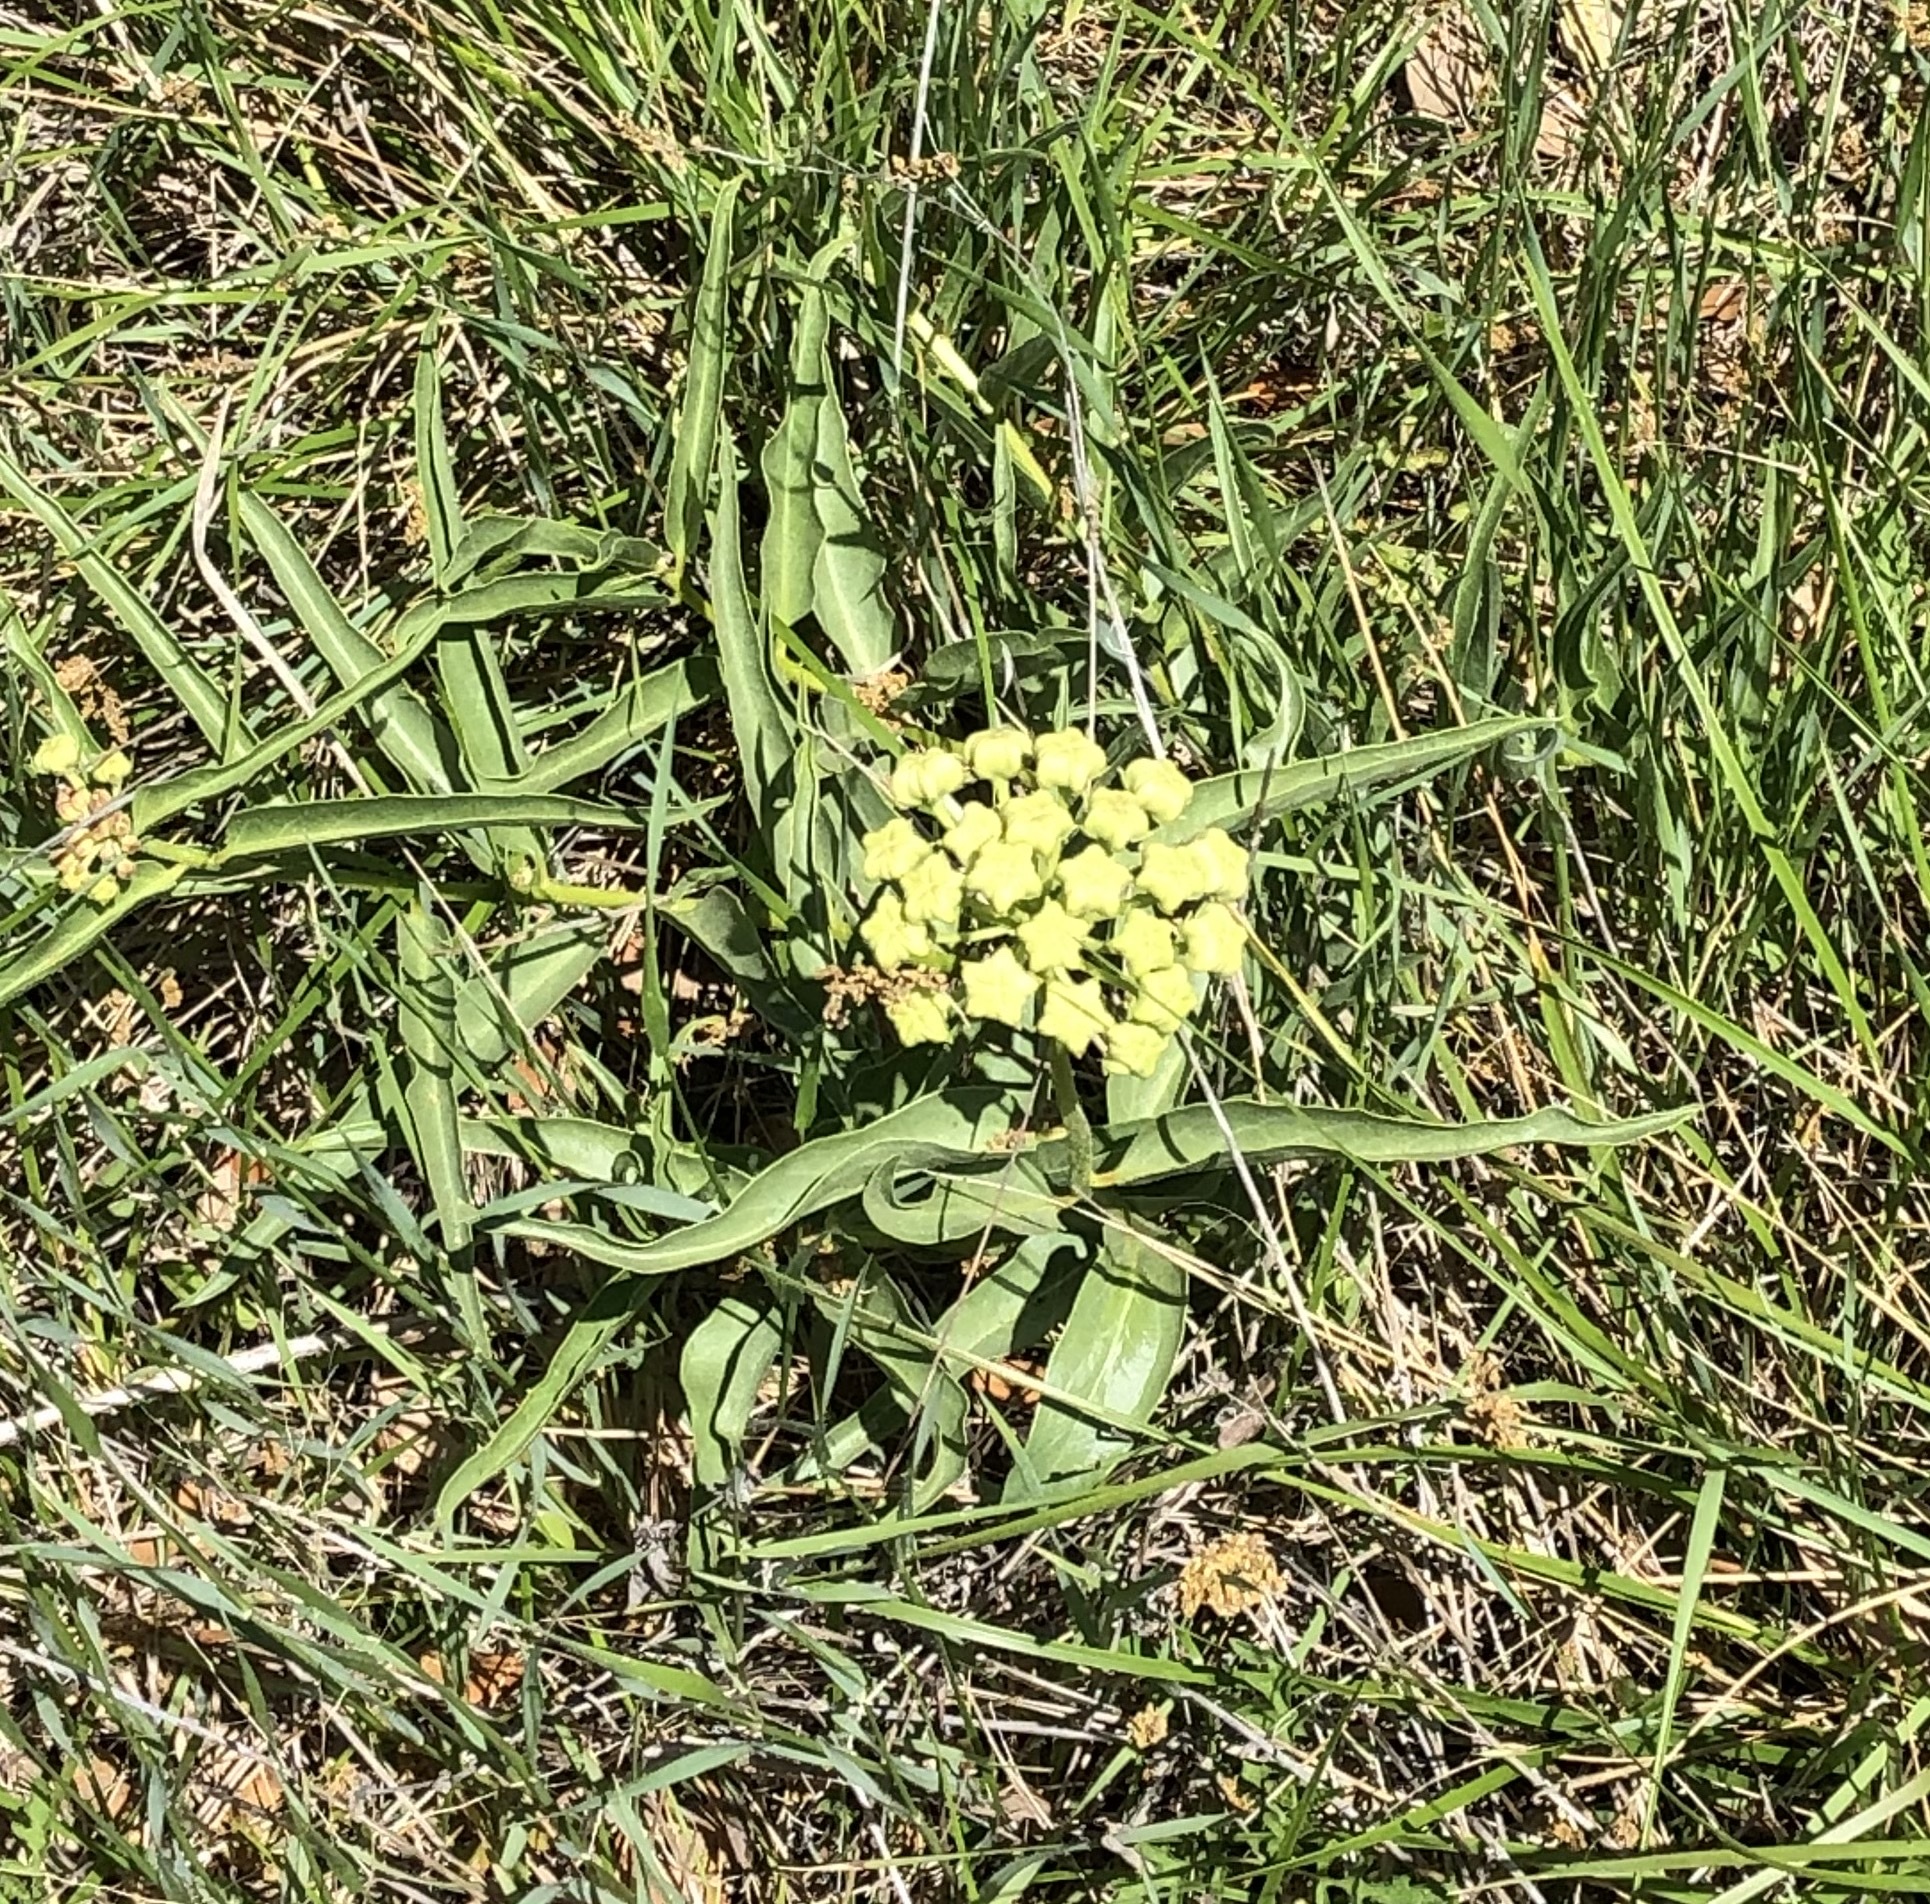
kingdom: Plantae
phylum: Tracheophyta
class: Magnoliopsida
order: Gentianales
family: Apocynaceae
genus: Asclepias
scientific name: Asclepias asperula
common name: Antelope horns
